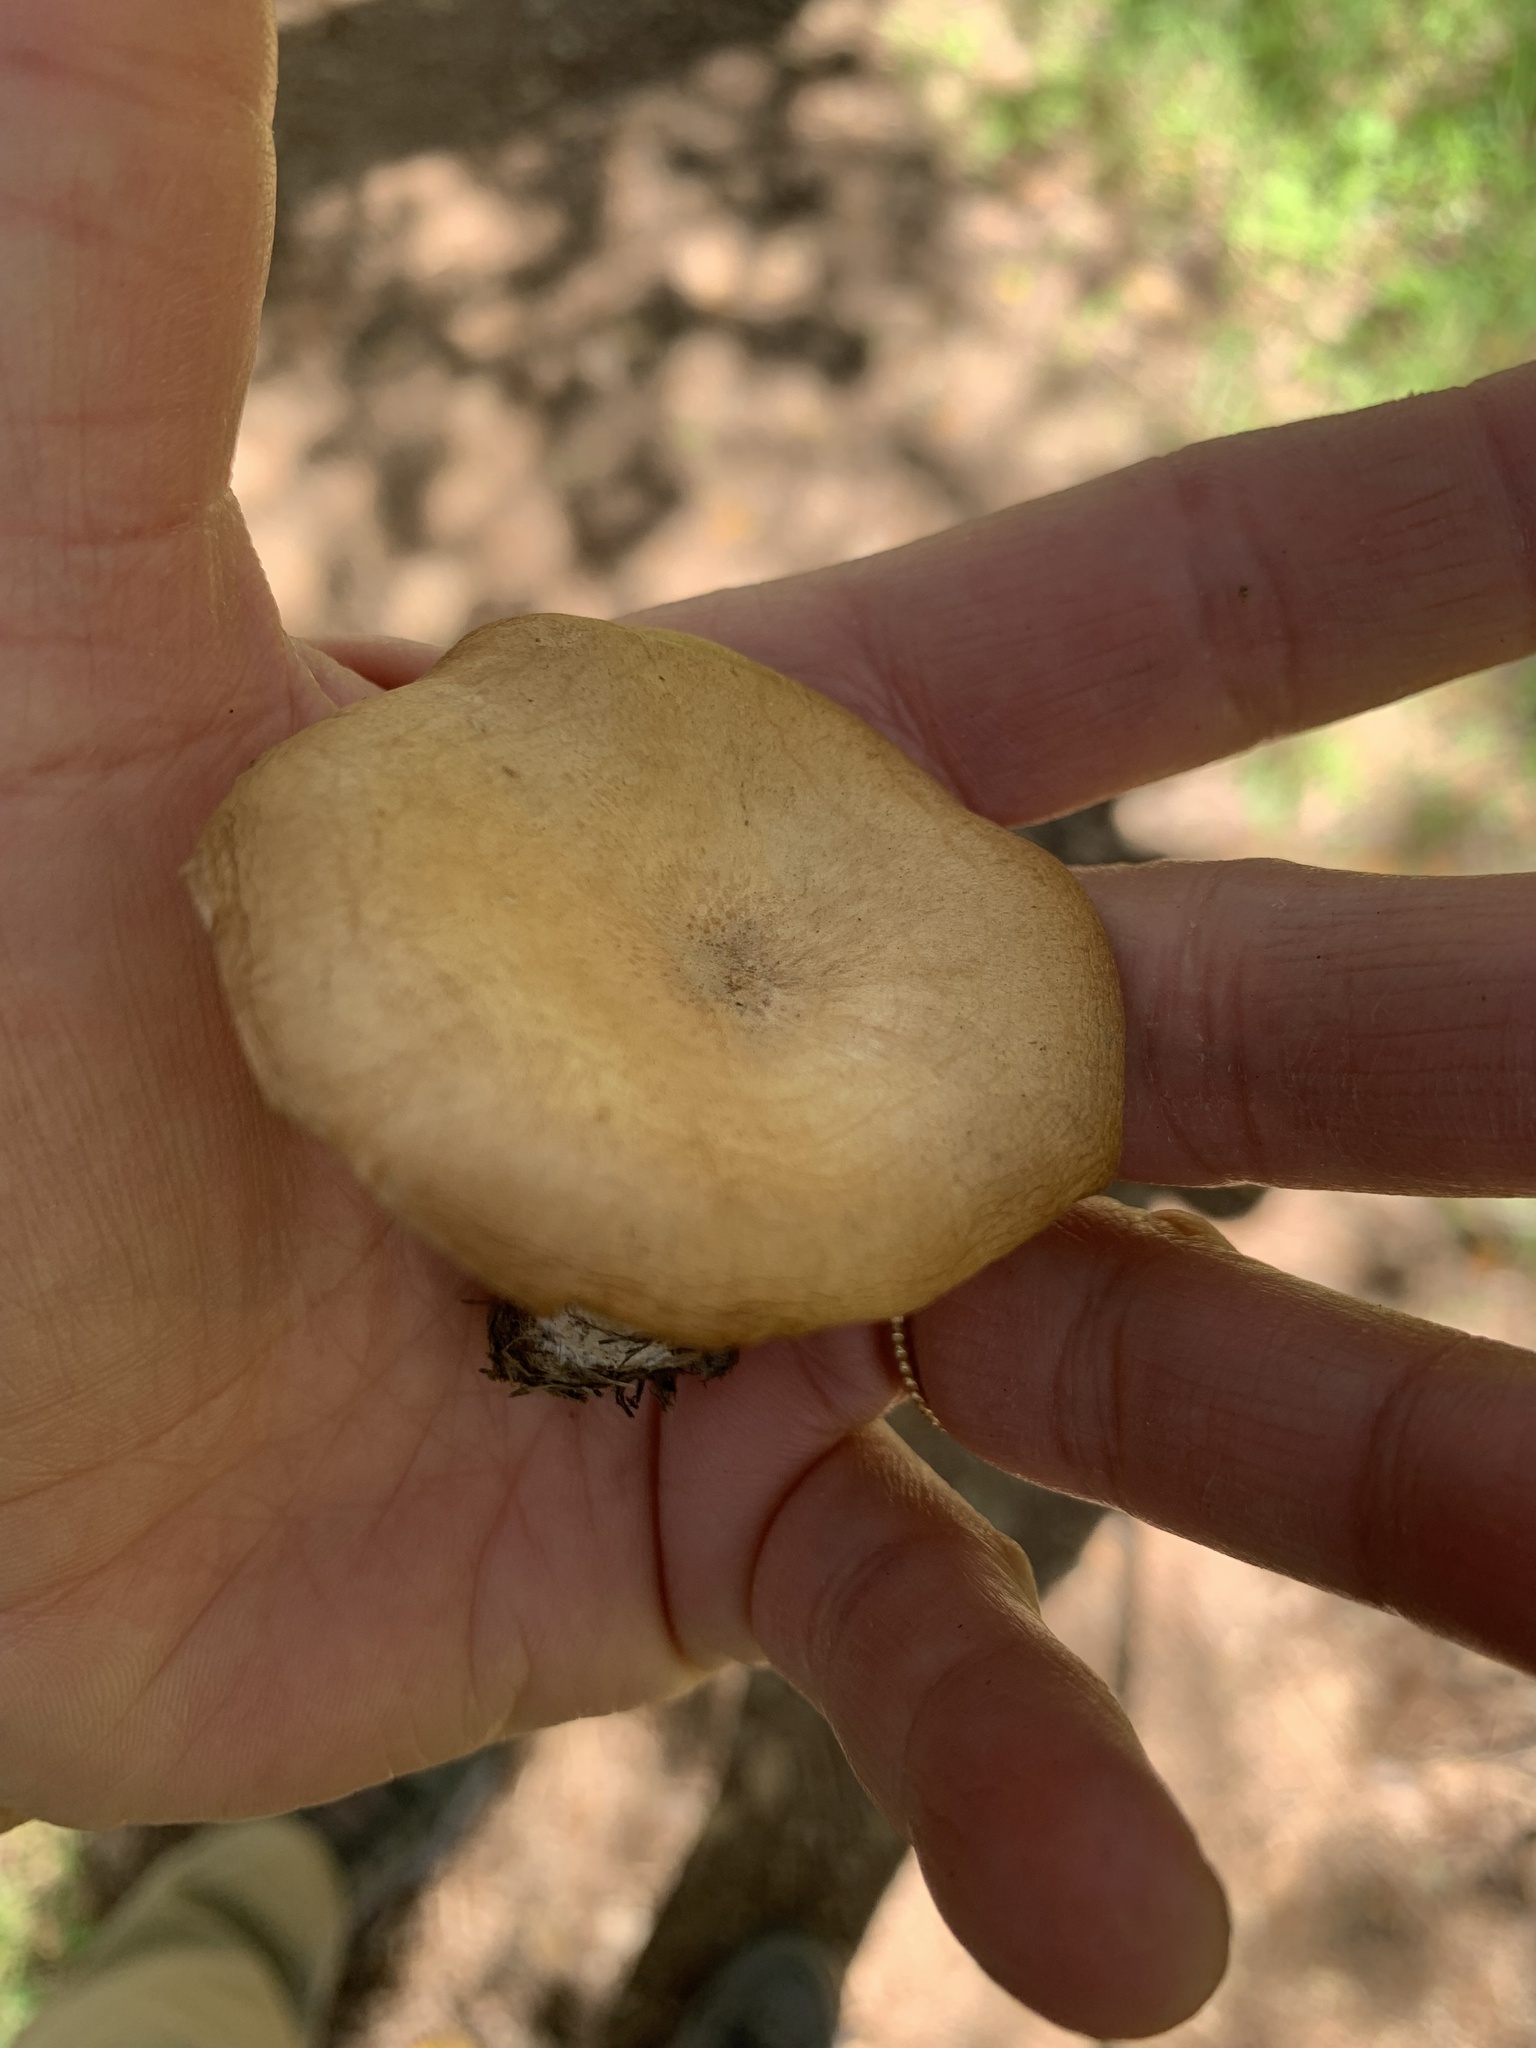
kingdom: Fungi
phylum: Basidiomycota
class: Agaricomycetes
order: Agaricales
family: Tricholomataceae
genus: Infundibulicybe
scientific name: Infundibulicybe squamulosa
